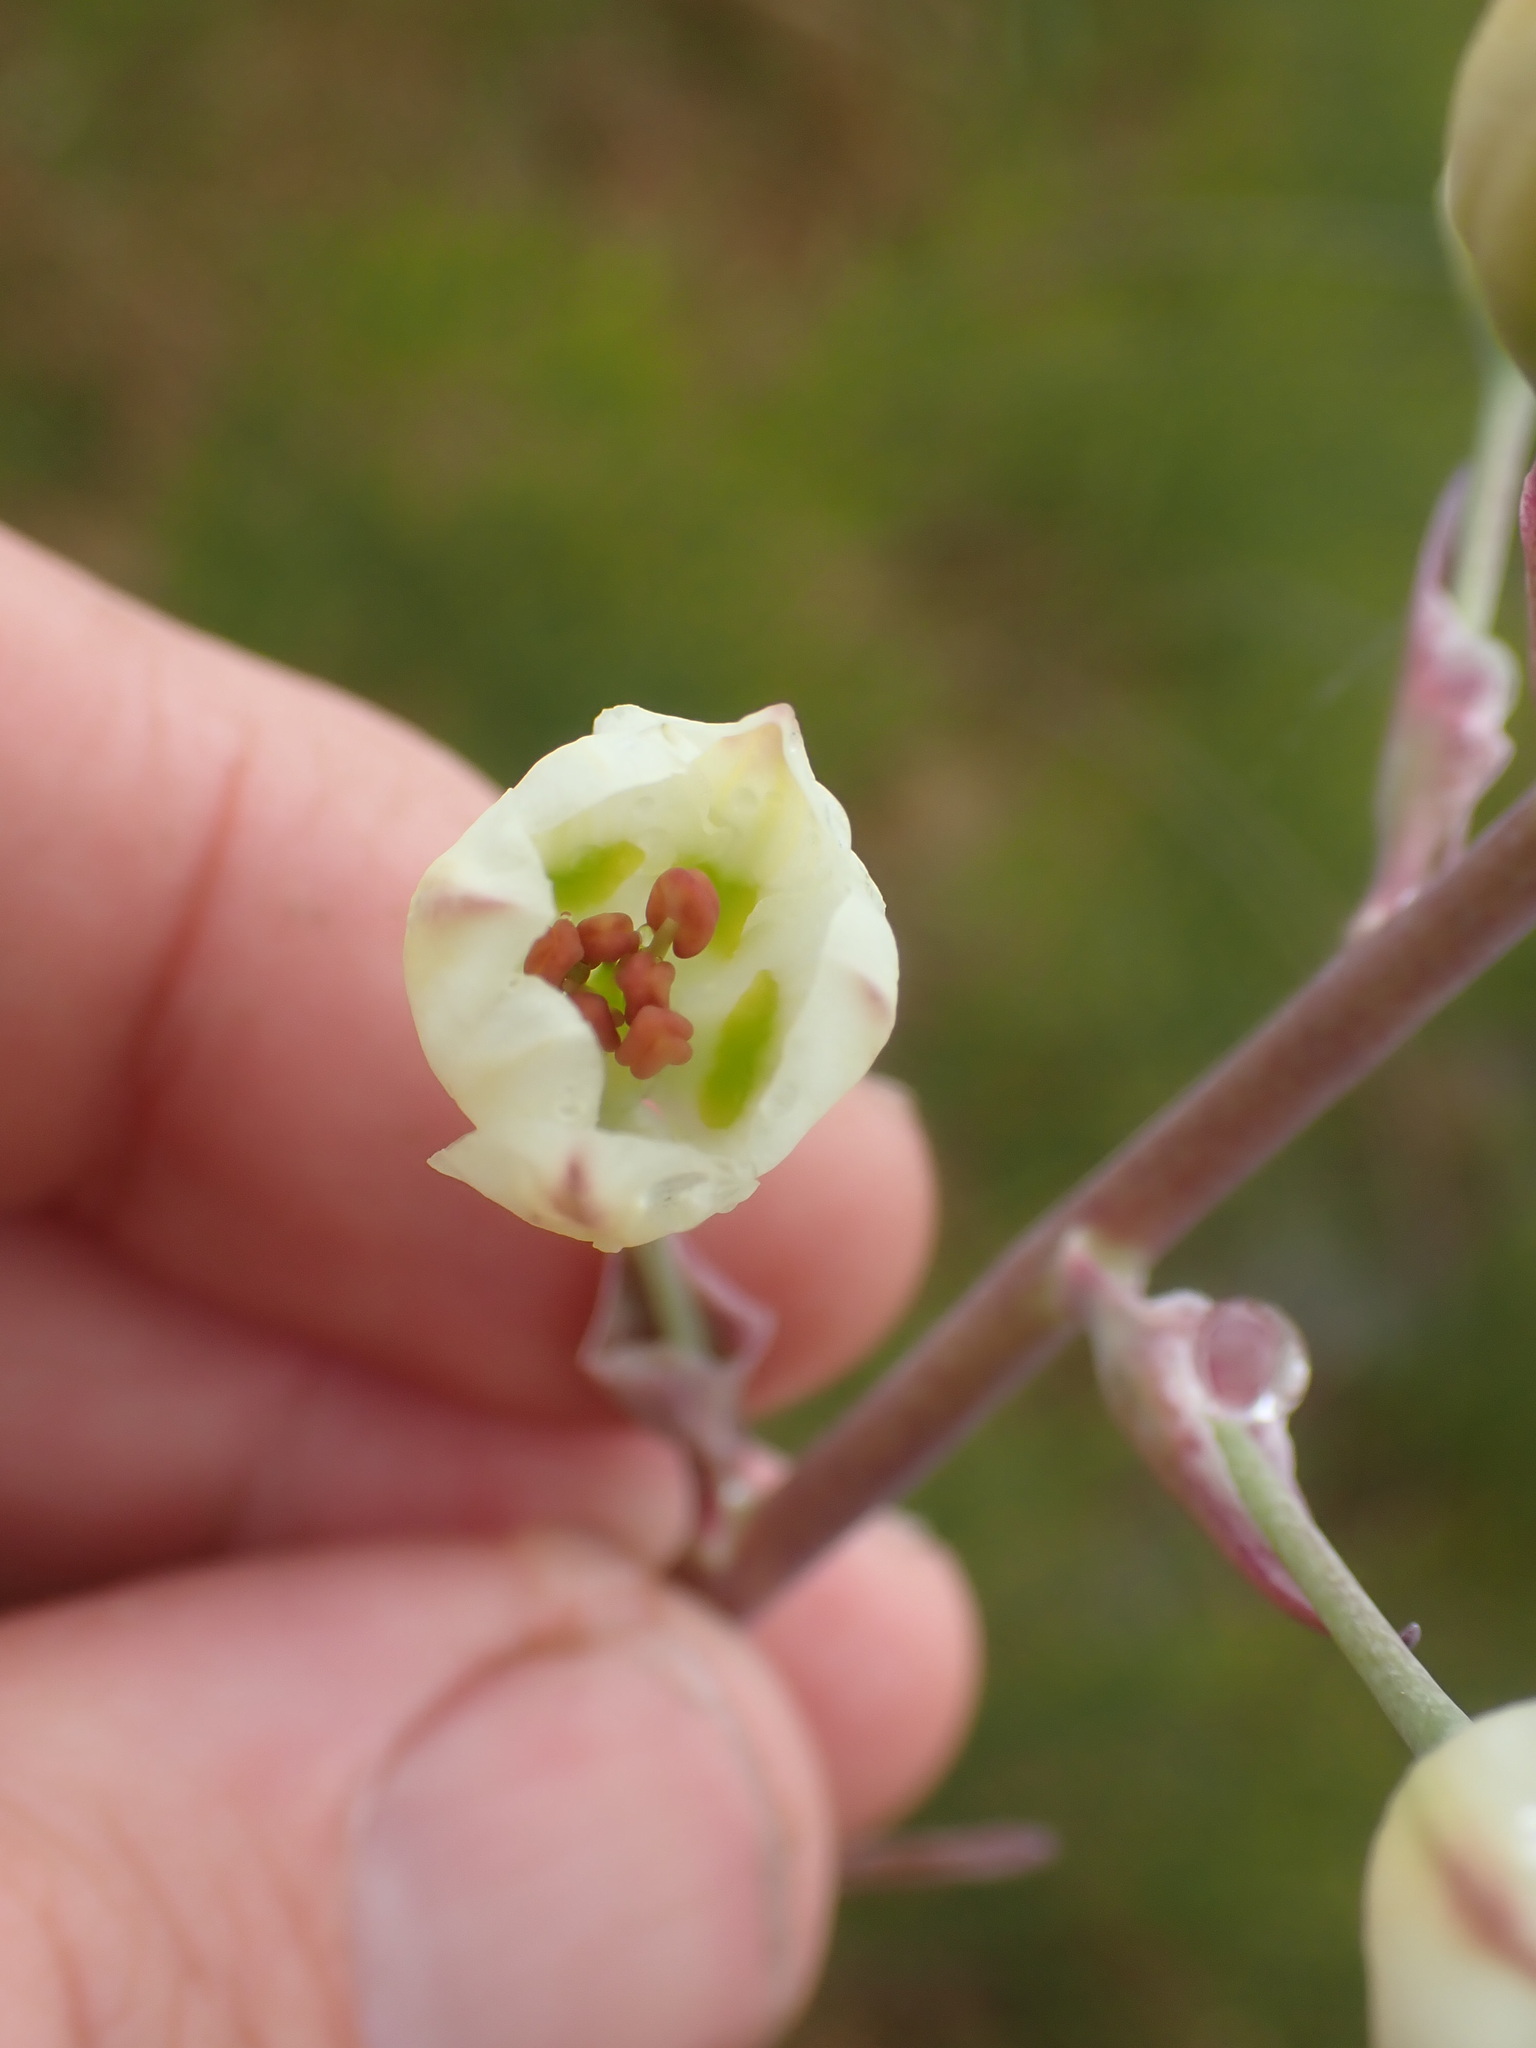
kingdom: Plantae
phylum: Tracheophyta
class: Liliopsida
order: Liliales
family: Melanthiaceae
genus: Anticlea
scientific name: Anticlea elegans
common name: Mountain death camas
